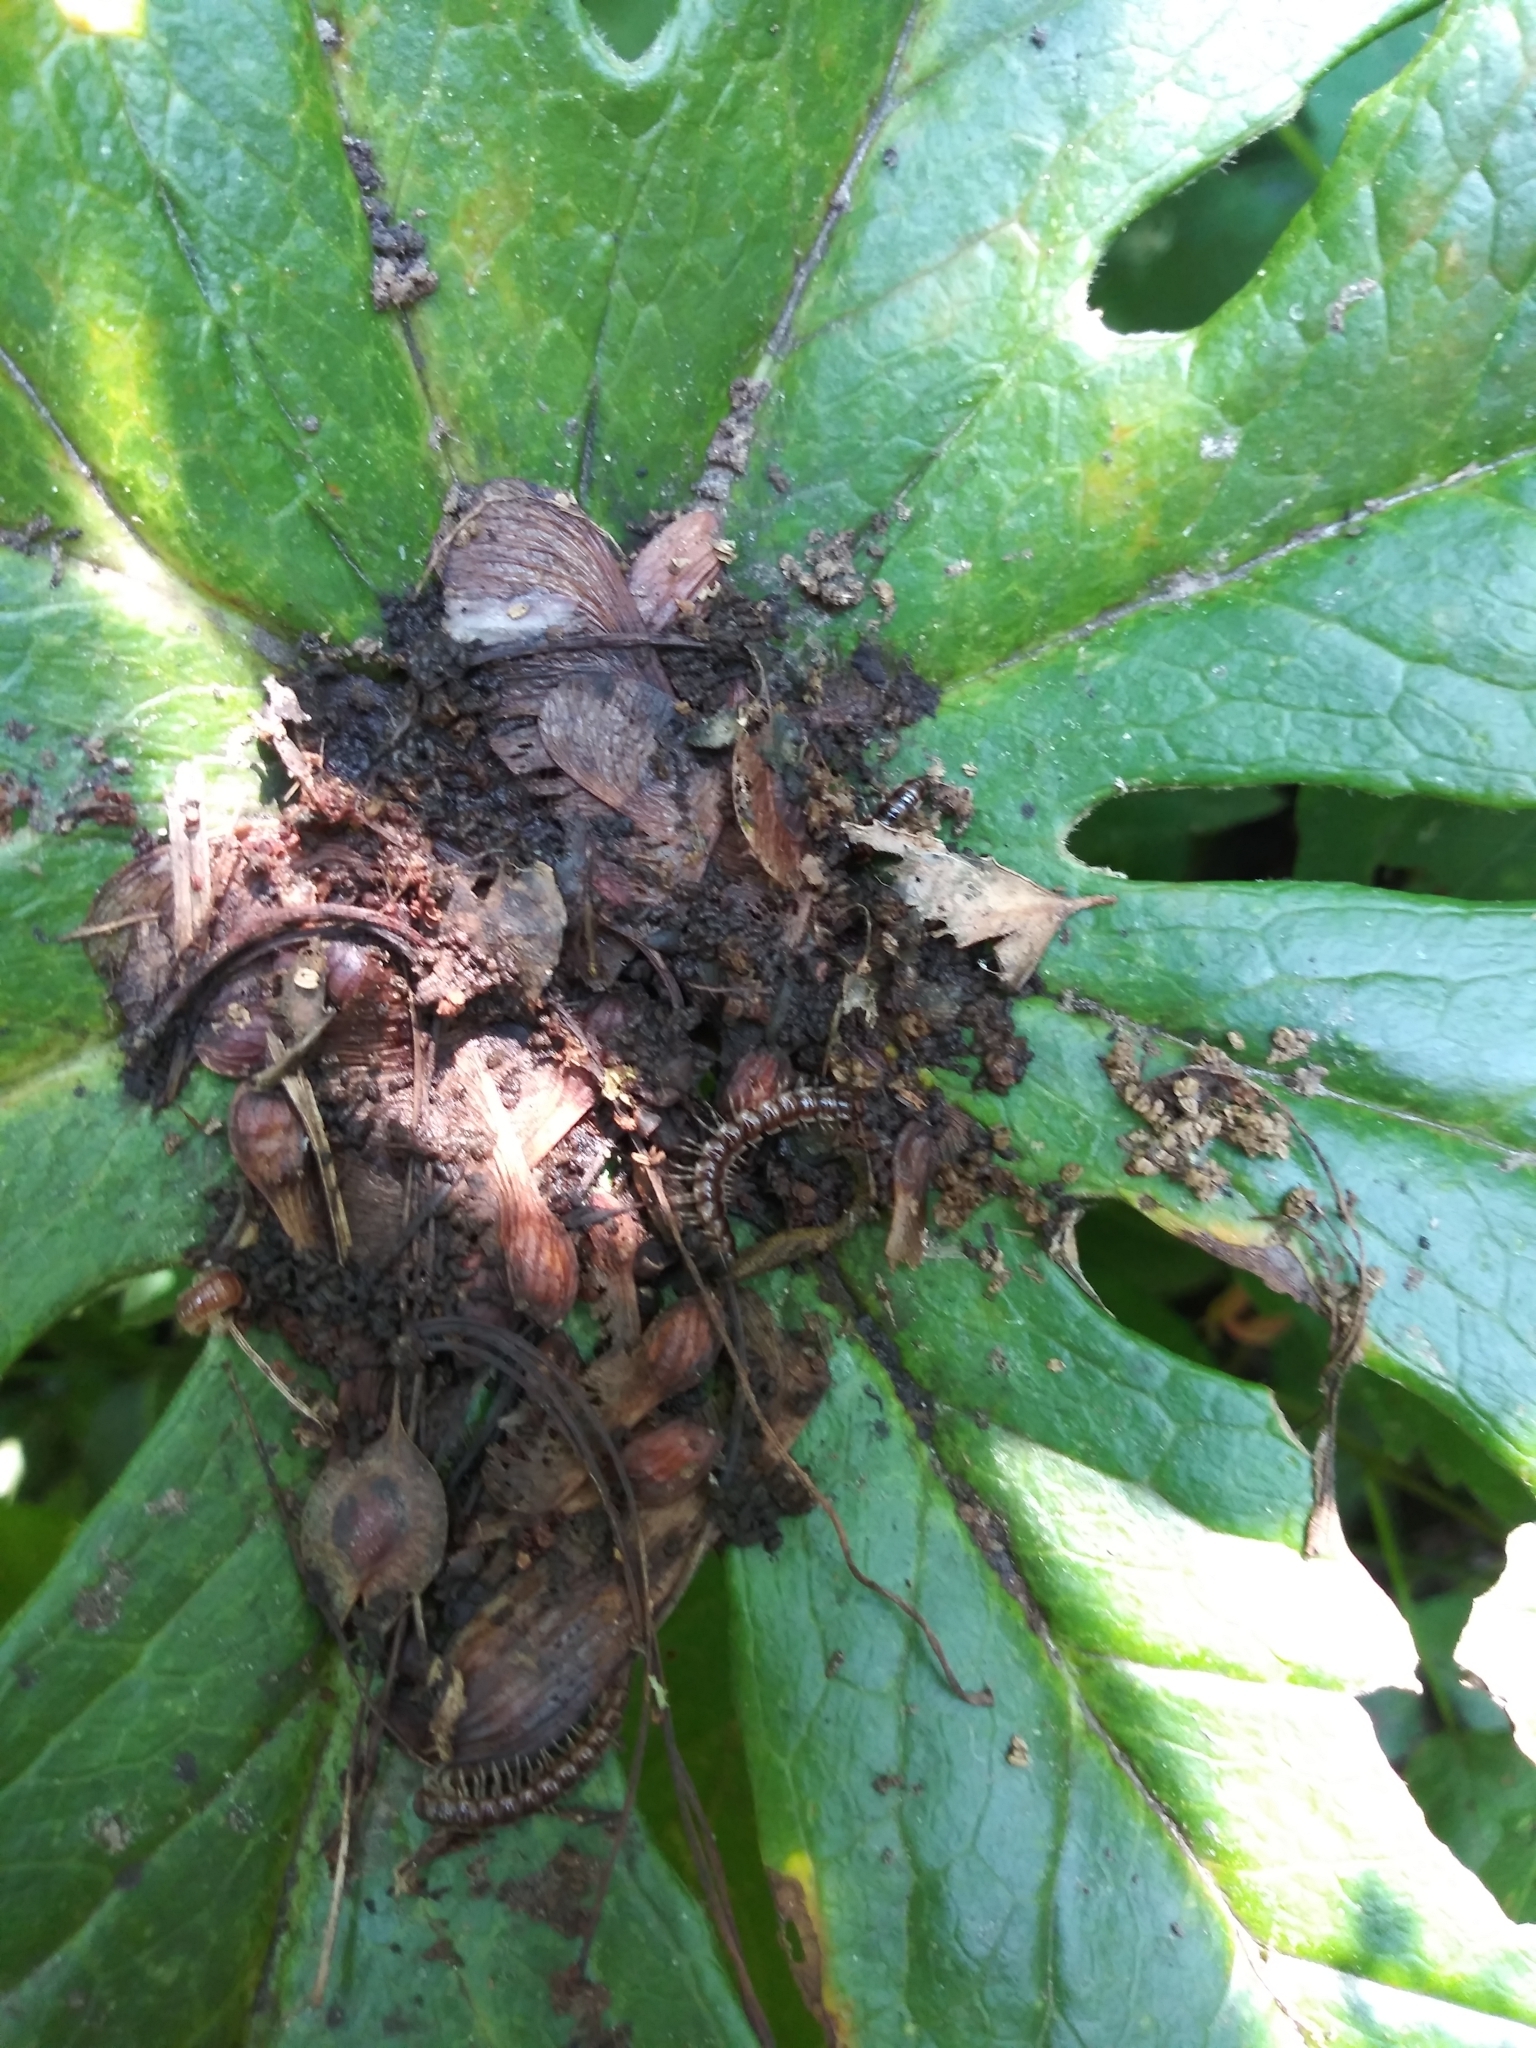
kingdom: Animalia
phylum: Arthropoda
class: Diplopoda
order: Polydesmida
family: Paradoxosomatidae
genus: Oxidus
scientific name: Oxidus gracilis
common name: Greenhouse millipede
